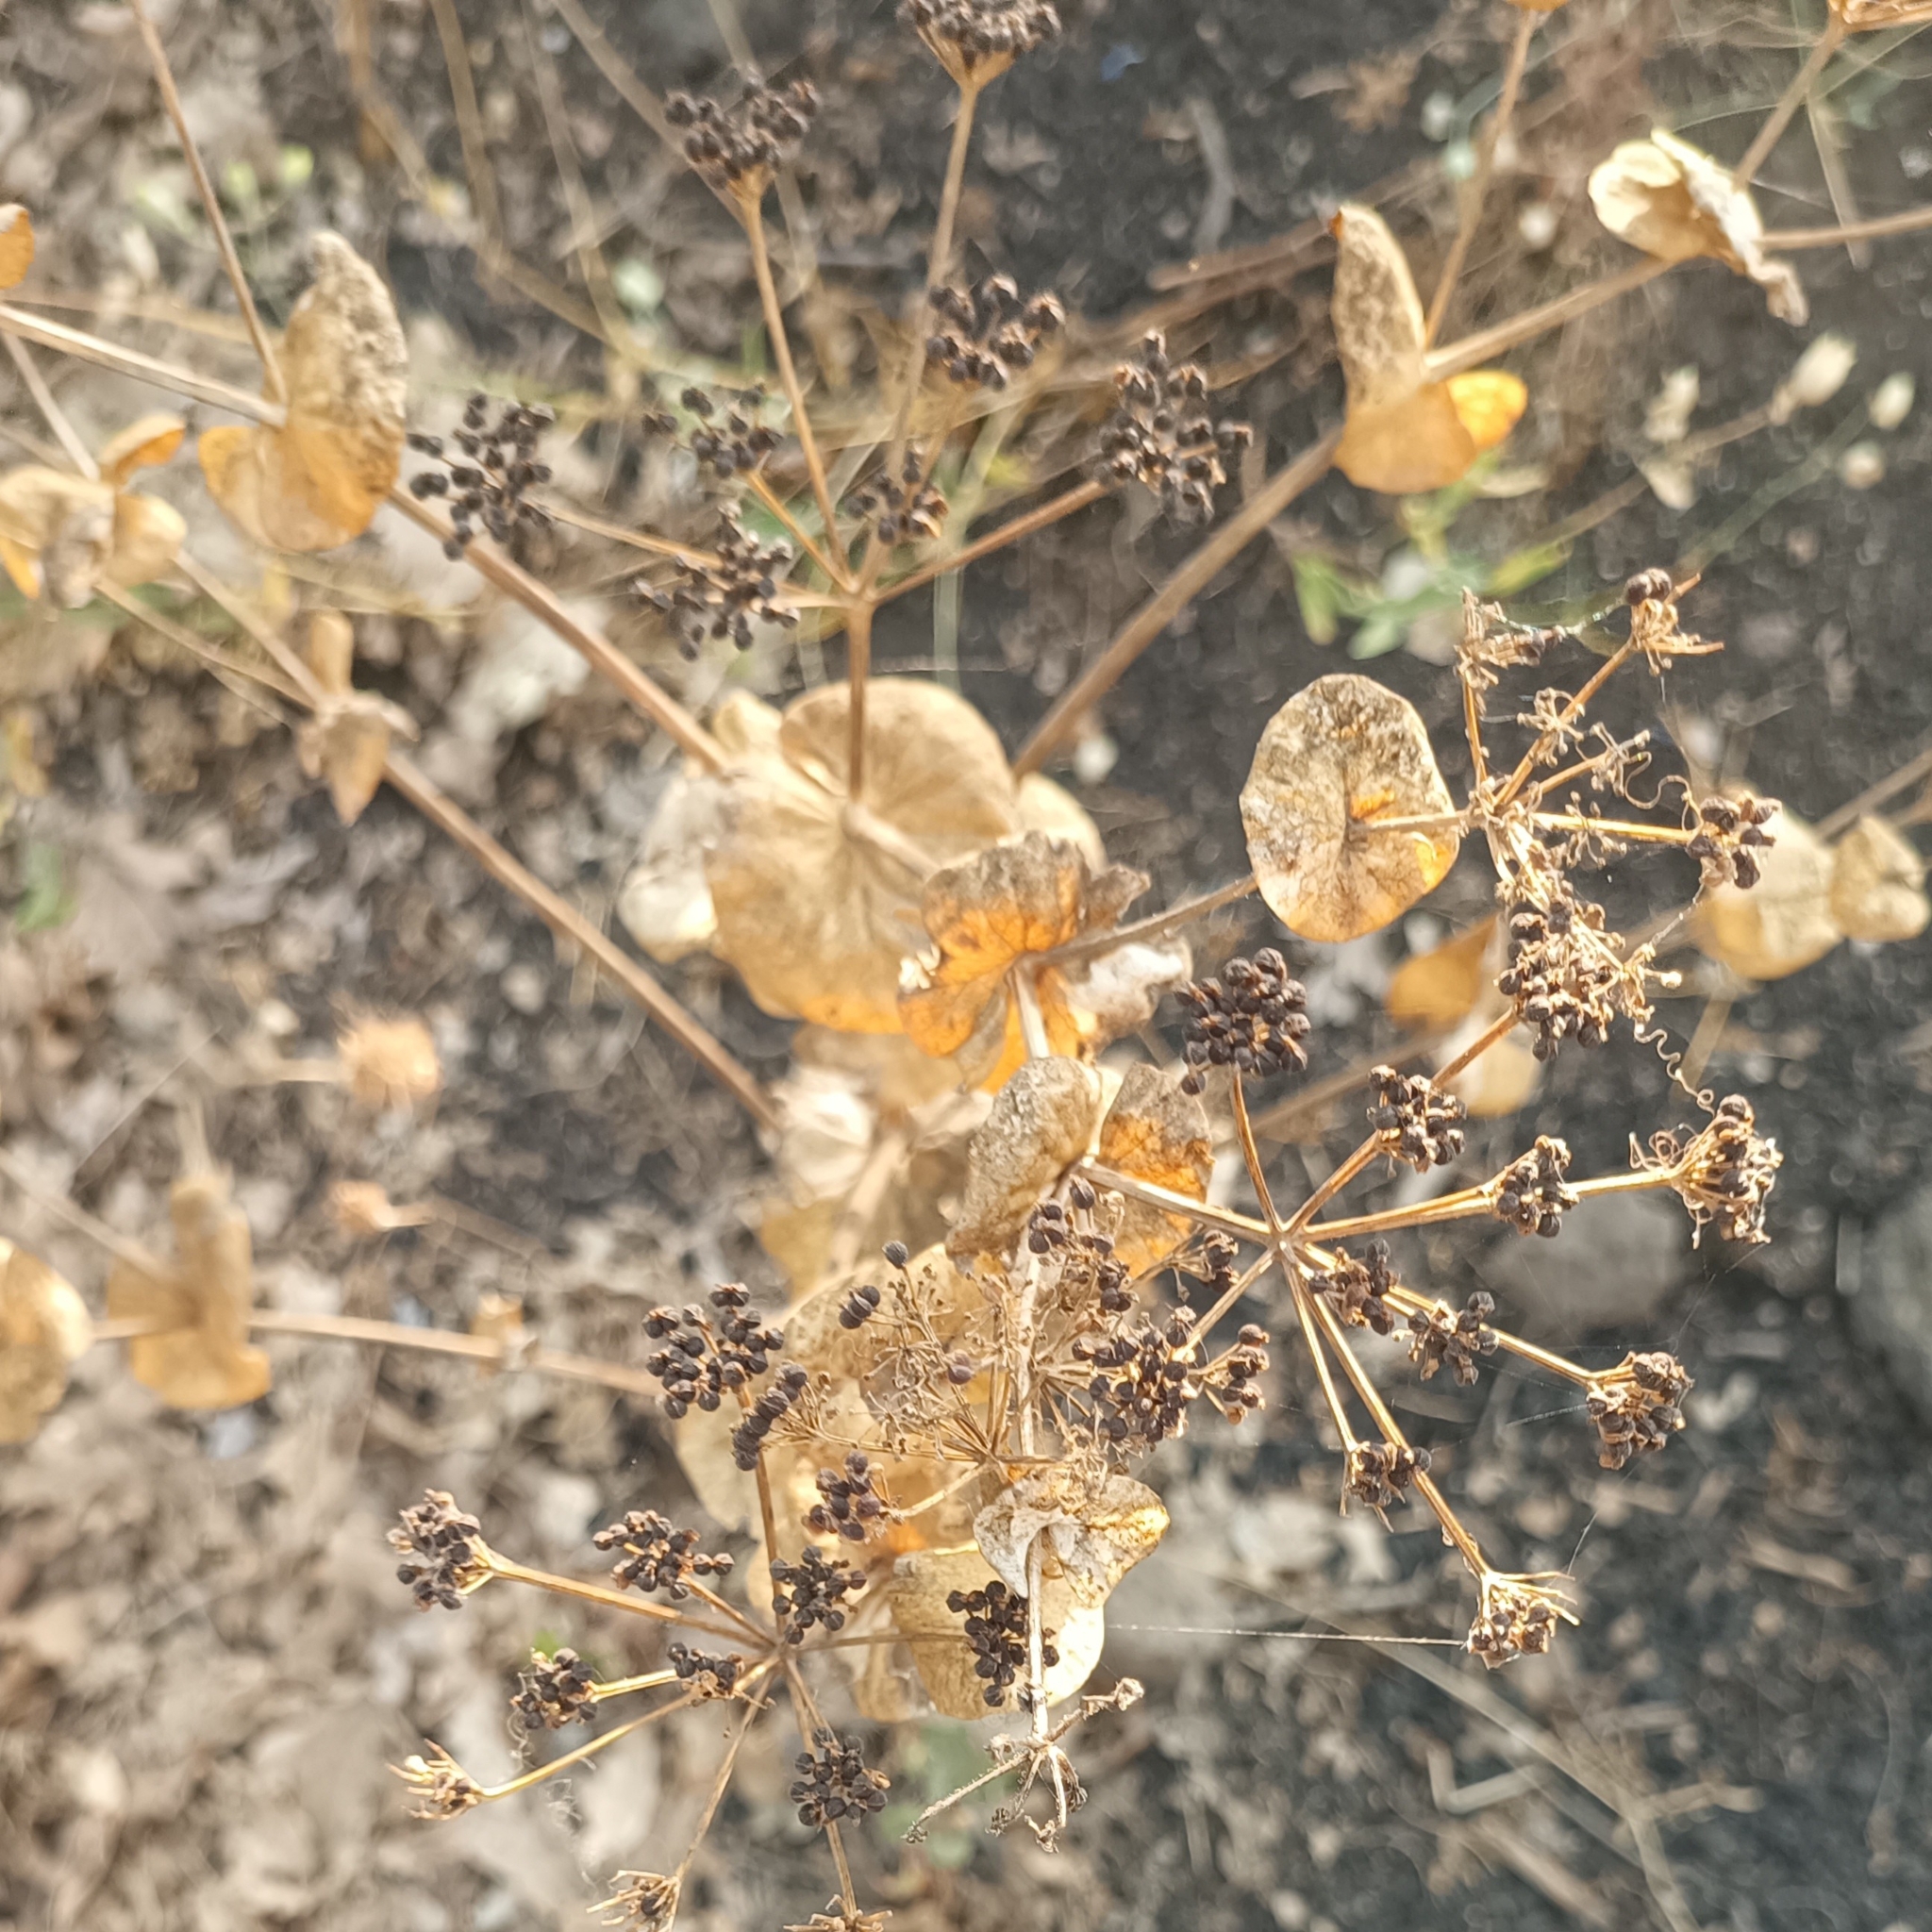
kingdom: Plantae
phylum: Tracheophyta
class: Magnoliopsida
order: Apiales
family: Apiaceae
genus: Smyrnium
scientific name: Smyrnium perfoliatum
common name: Perfoliate alexanders
